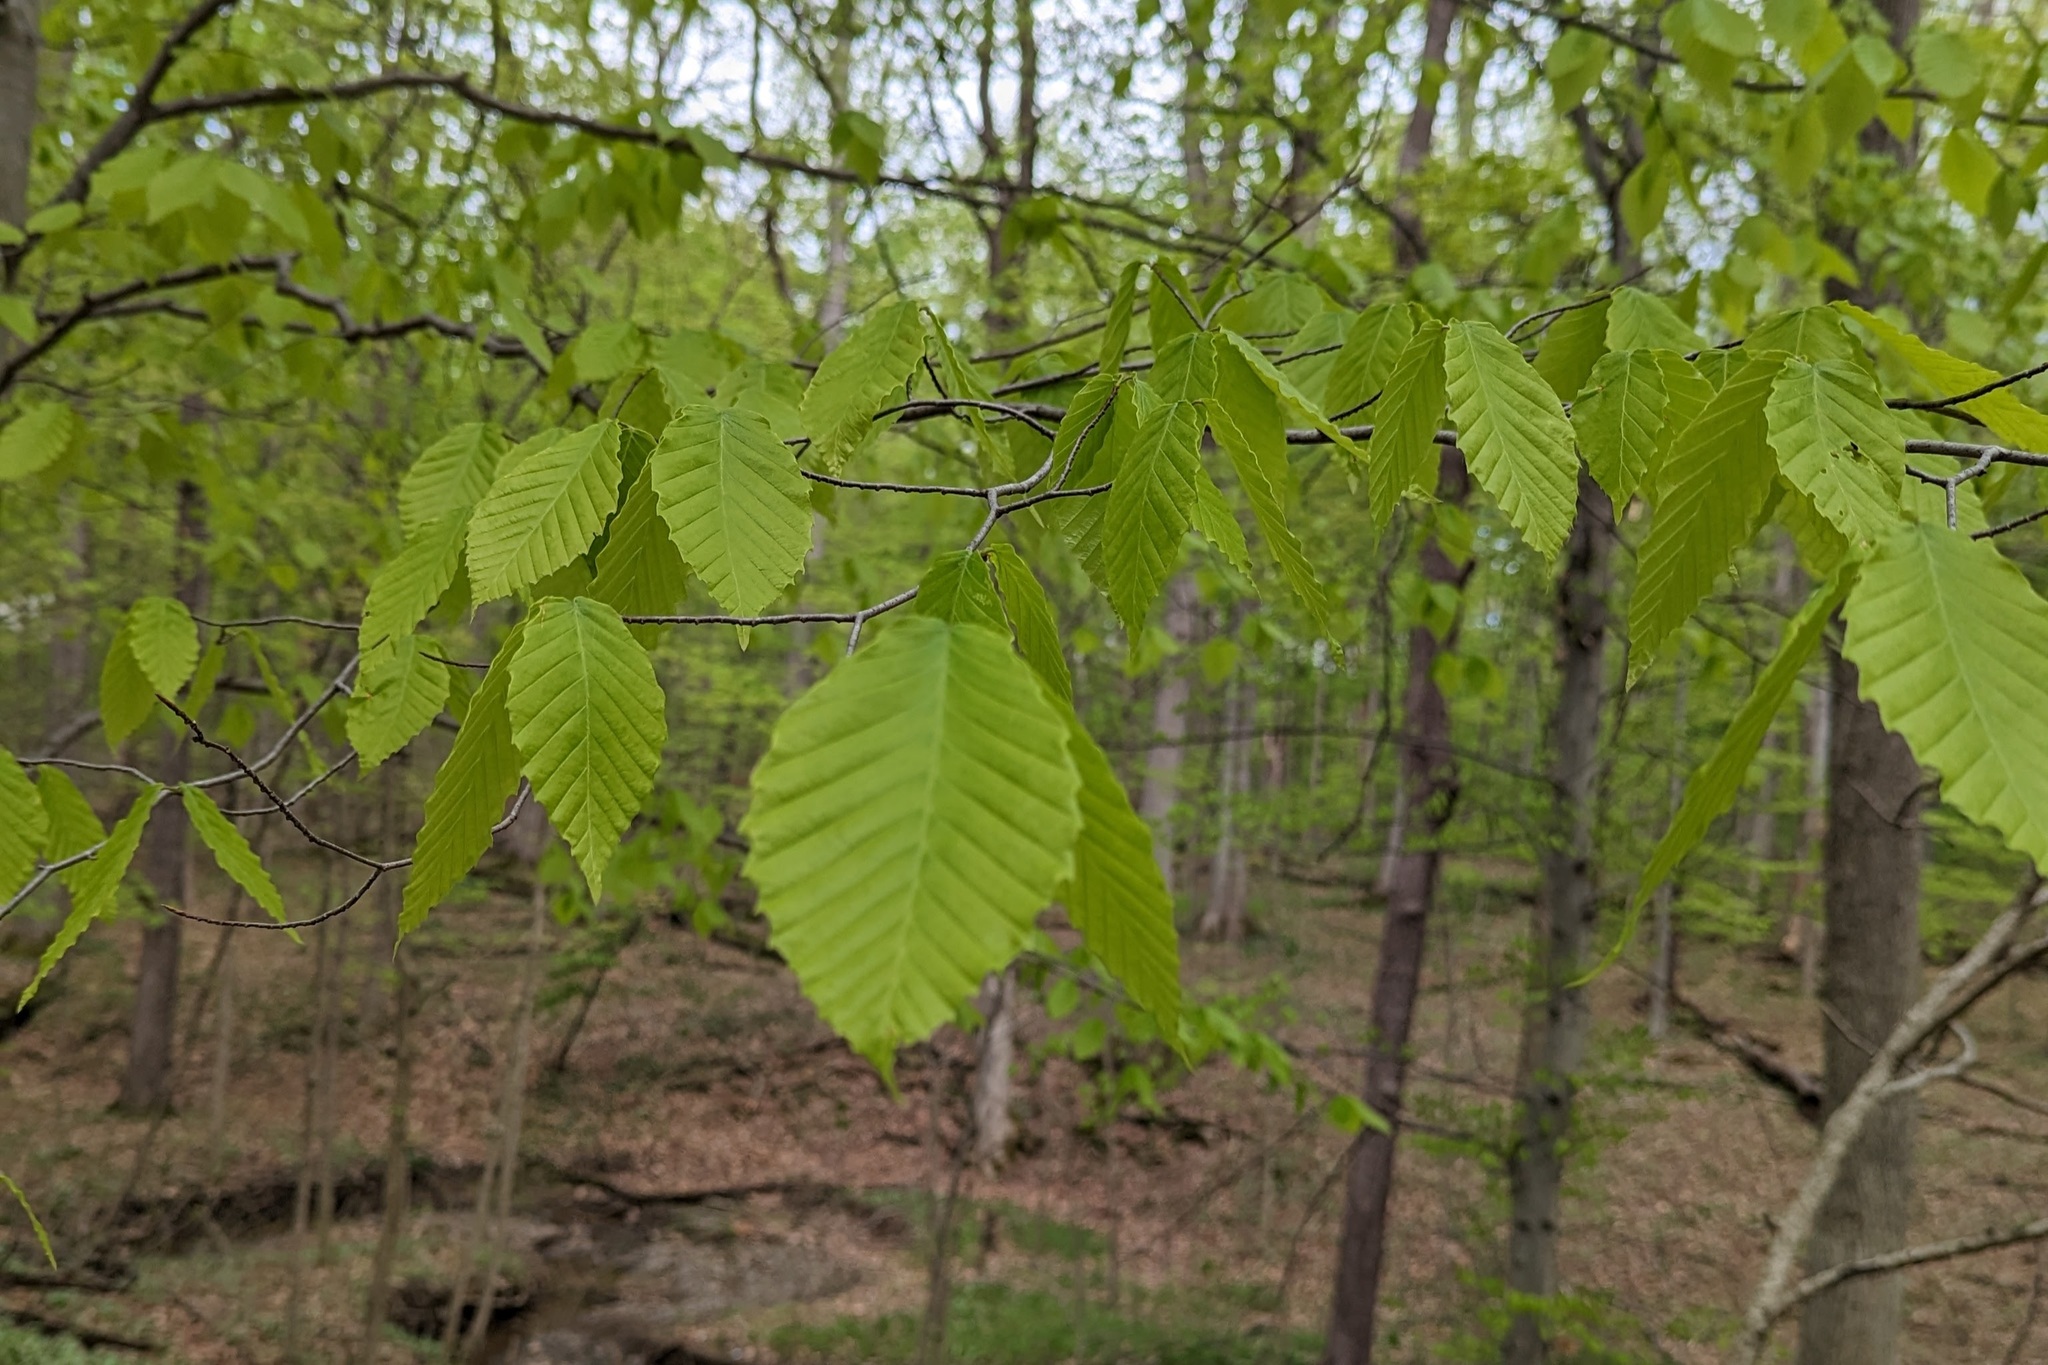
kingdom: Plantae
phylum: Tracheophyta
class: Magnoliopsida
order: Fagales
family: Fagaceae
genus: Fagus
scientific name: Fagus grandifolia
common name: American beech
